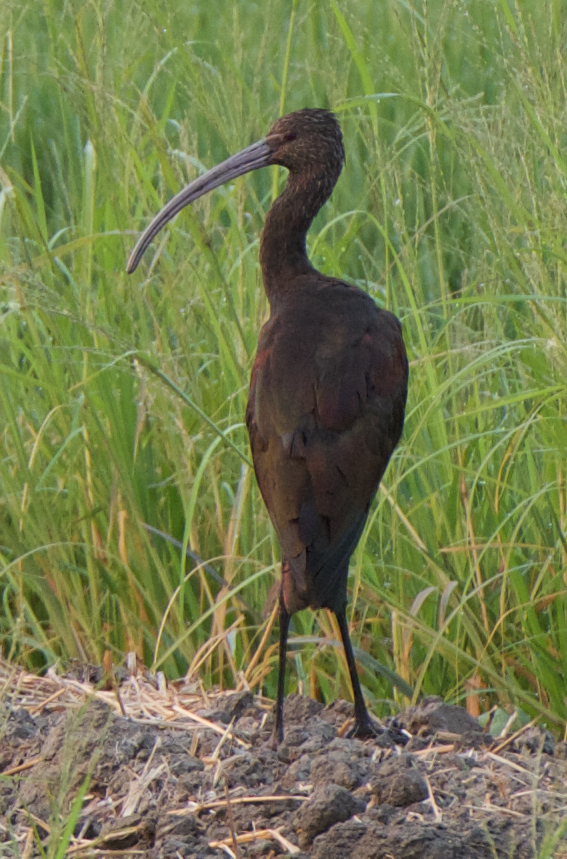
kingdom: Animalia
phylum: Chordata
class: Aves
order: Pelecaniformes
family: Threskiornithidae
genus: Plegadis
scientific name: Plegadis chihi
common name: White-faced ibis
